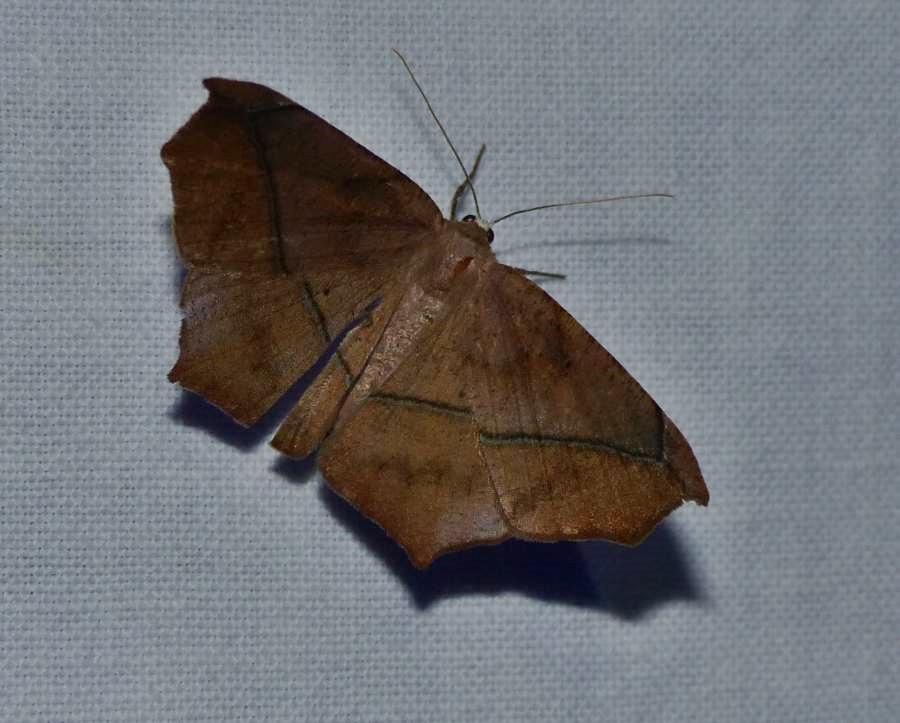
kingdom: Animalia
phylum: Arthropoda
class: Insecta
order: Lepidoptera
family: Geometridae
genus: Prochoerodes
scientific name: Prochoerodes lineola
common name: Large maple spanworm
